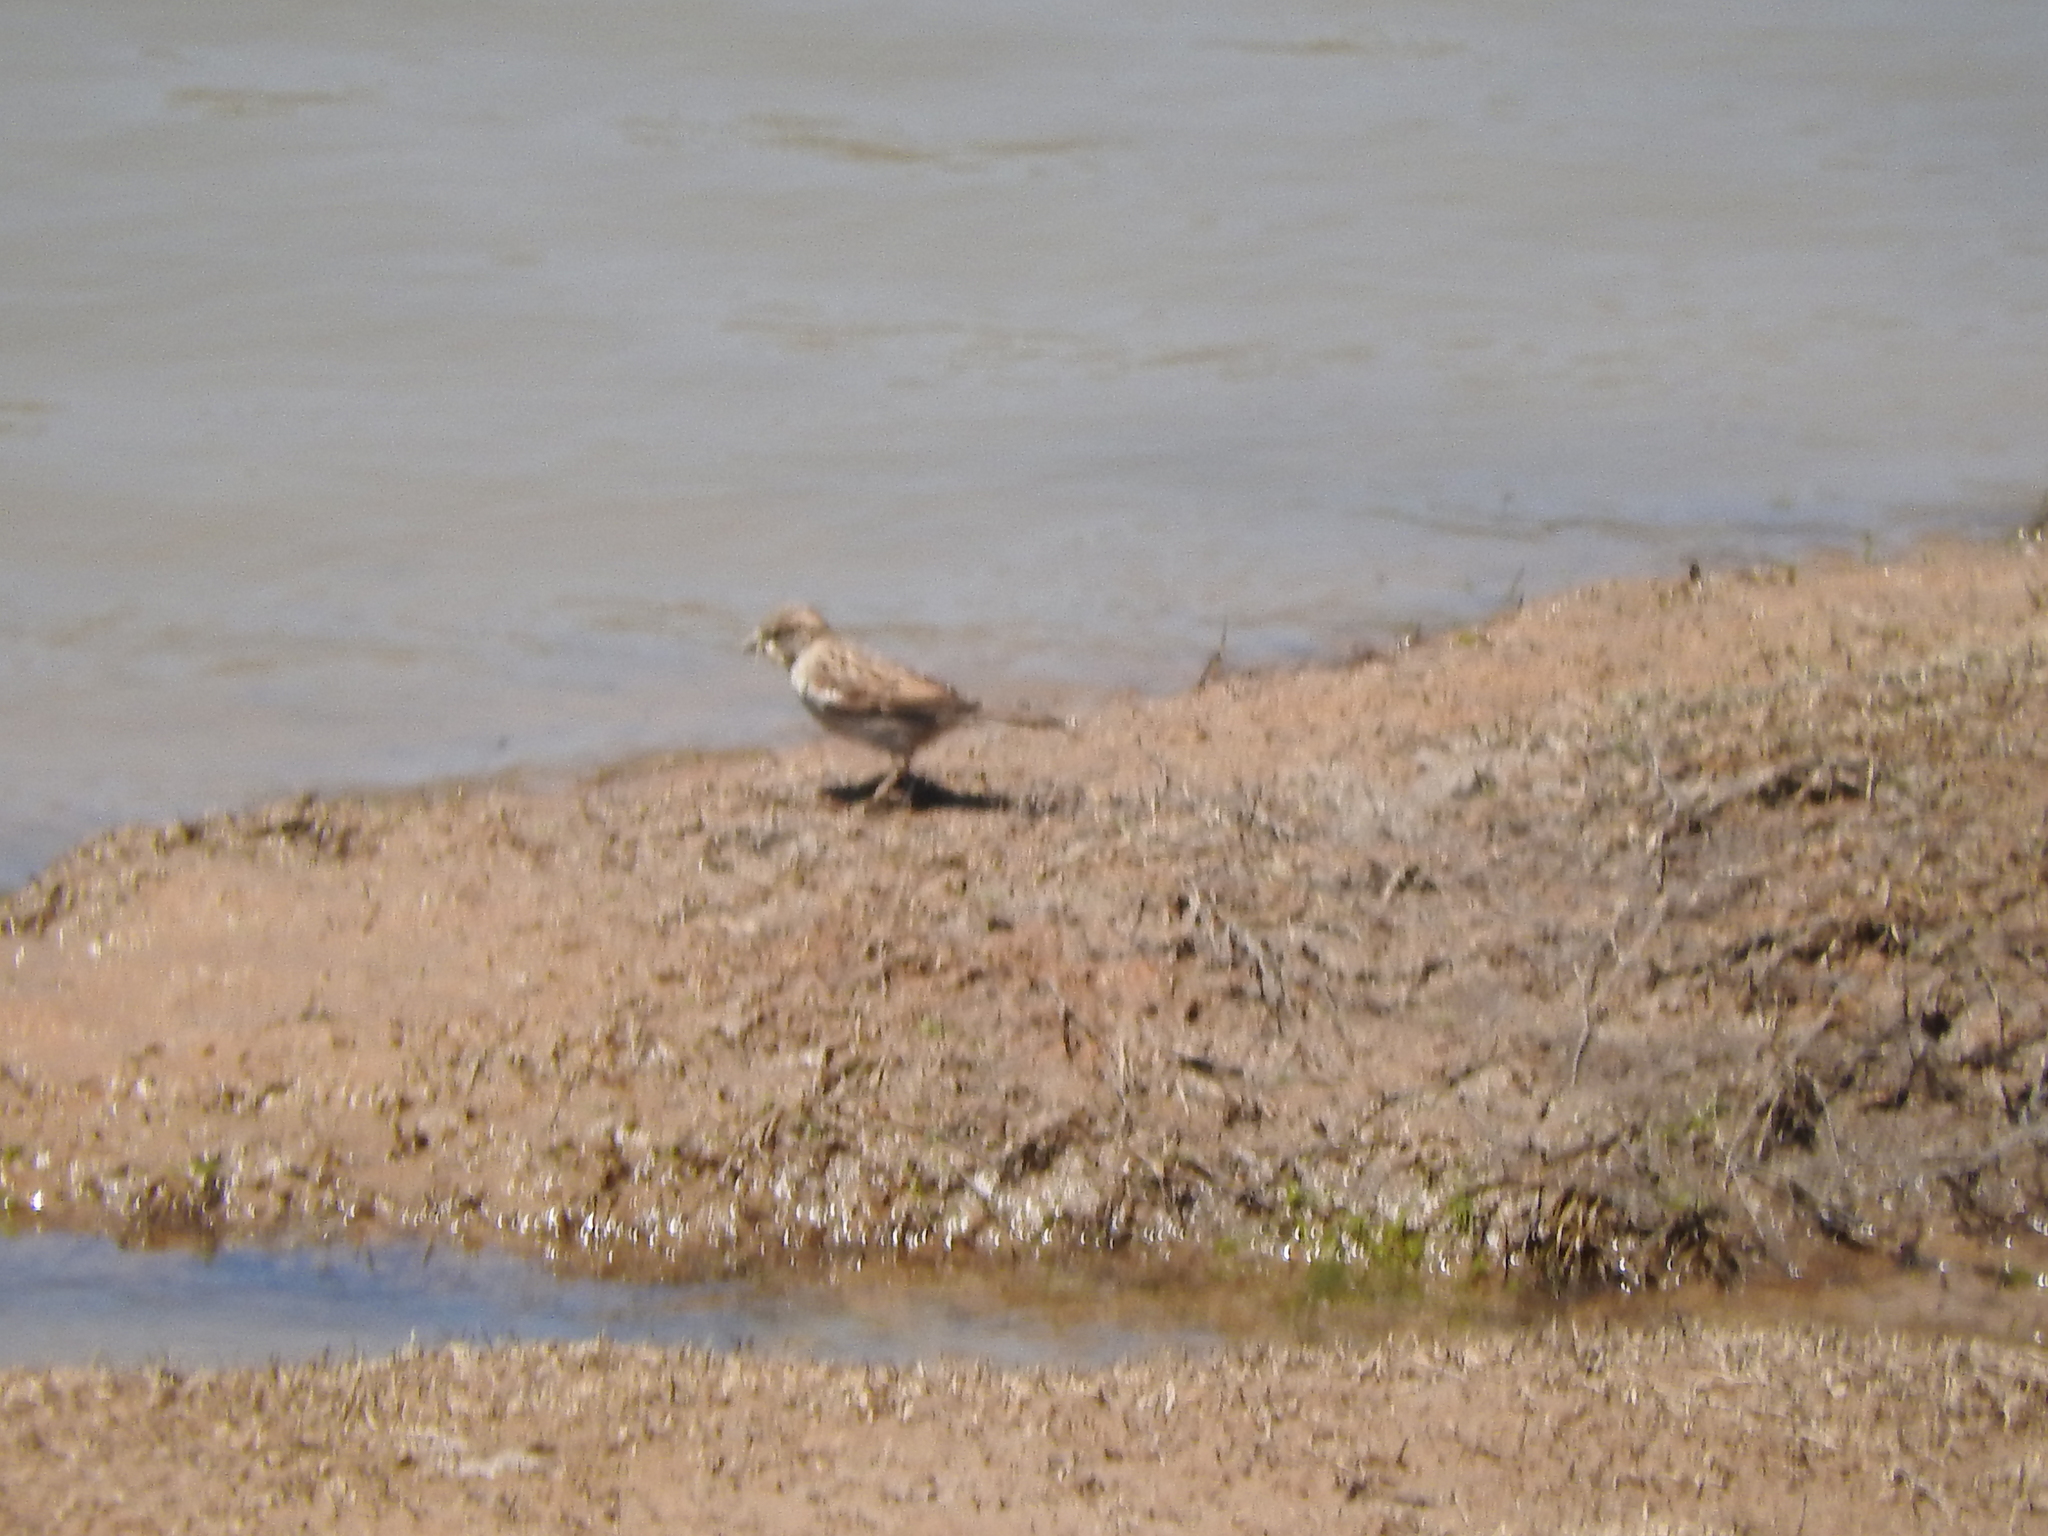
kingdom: Animalia
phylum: Chordata
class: Aves
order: Passeriformes
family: Passeridae
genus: Passer
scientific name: Passer domesticus
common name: House sparrow
